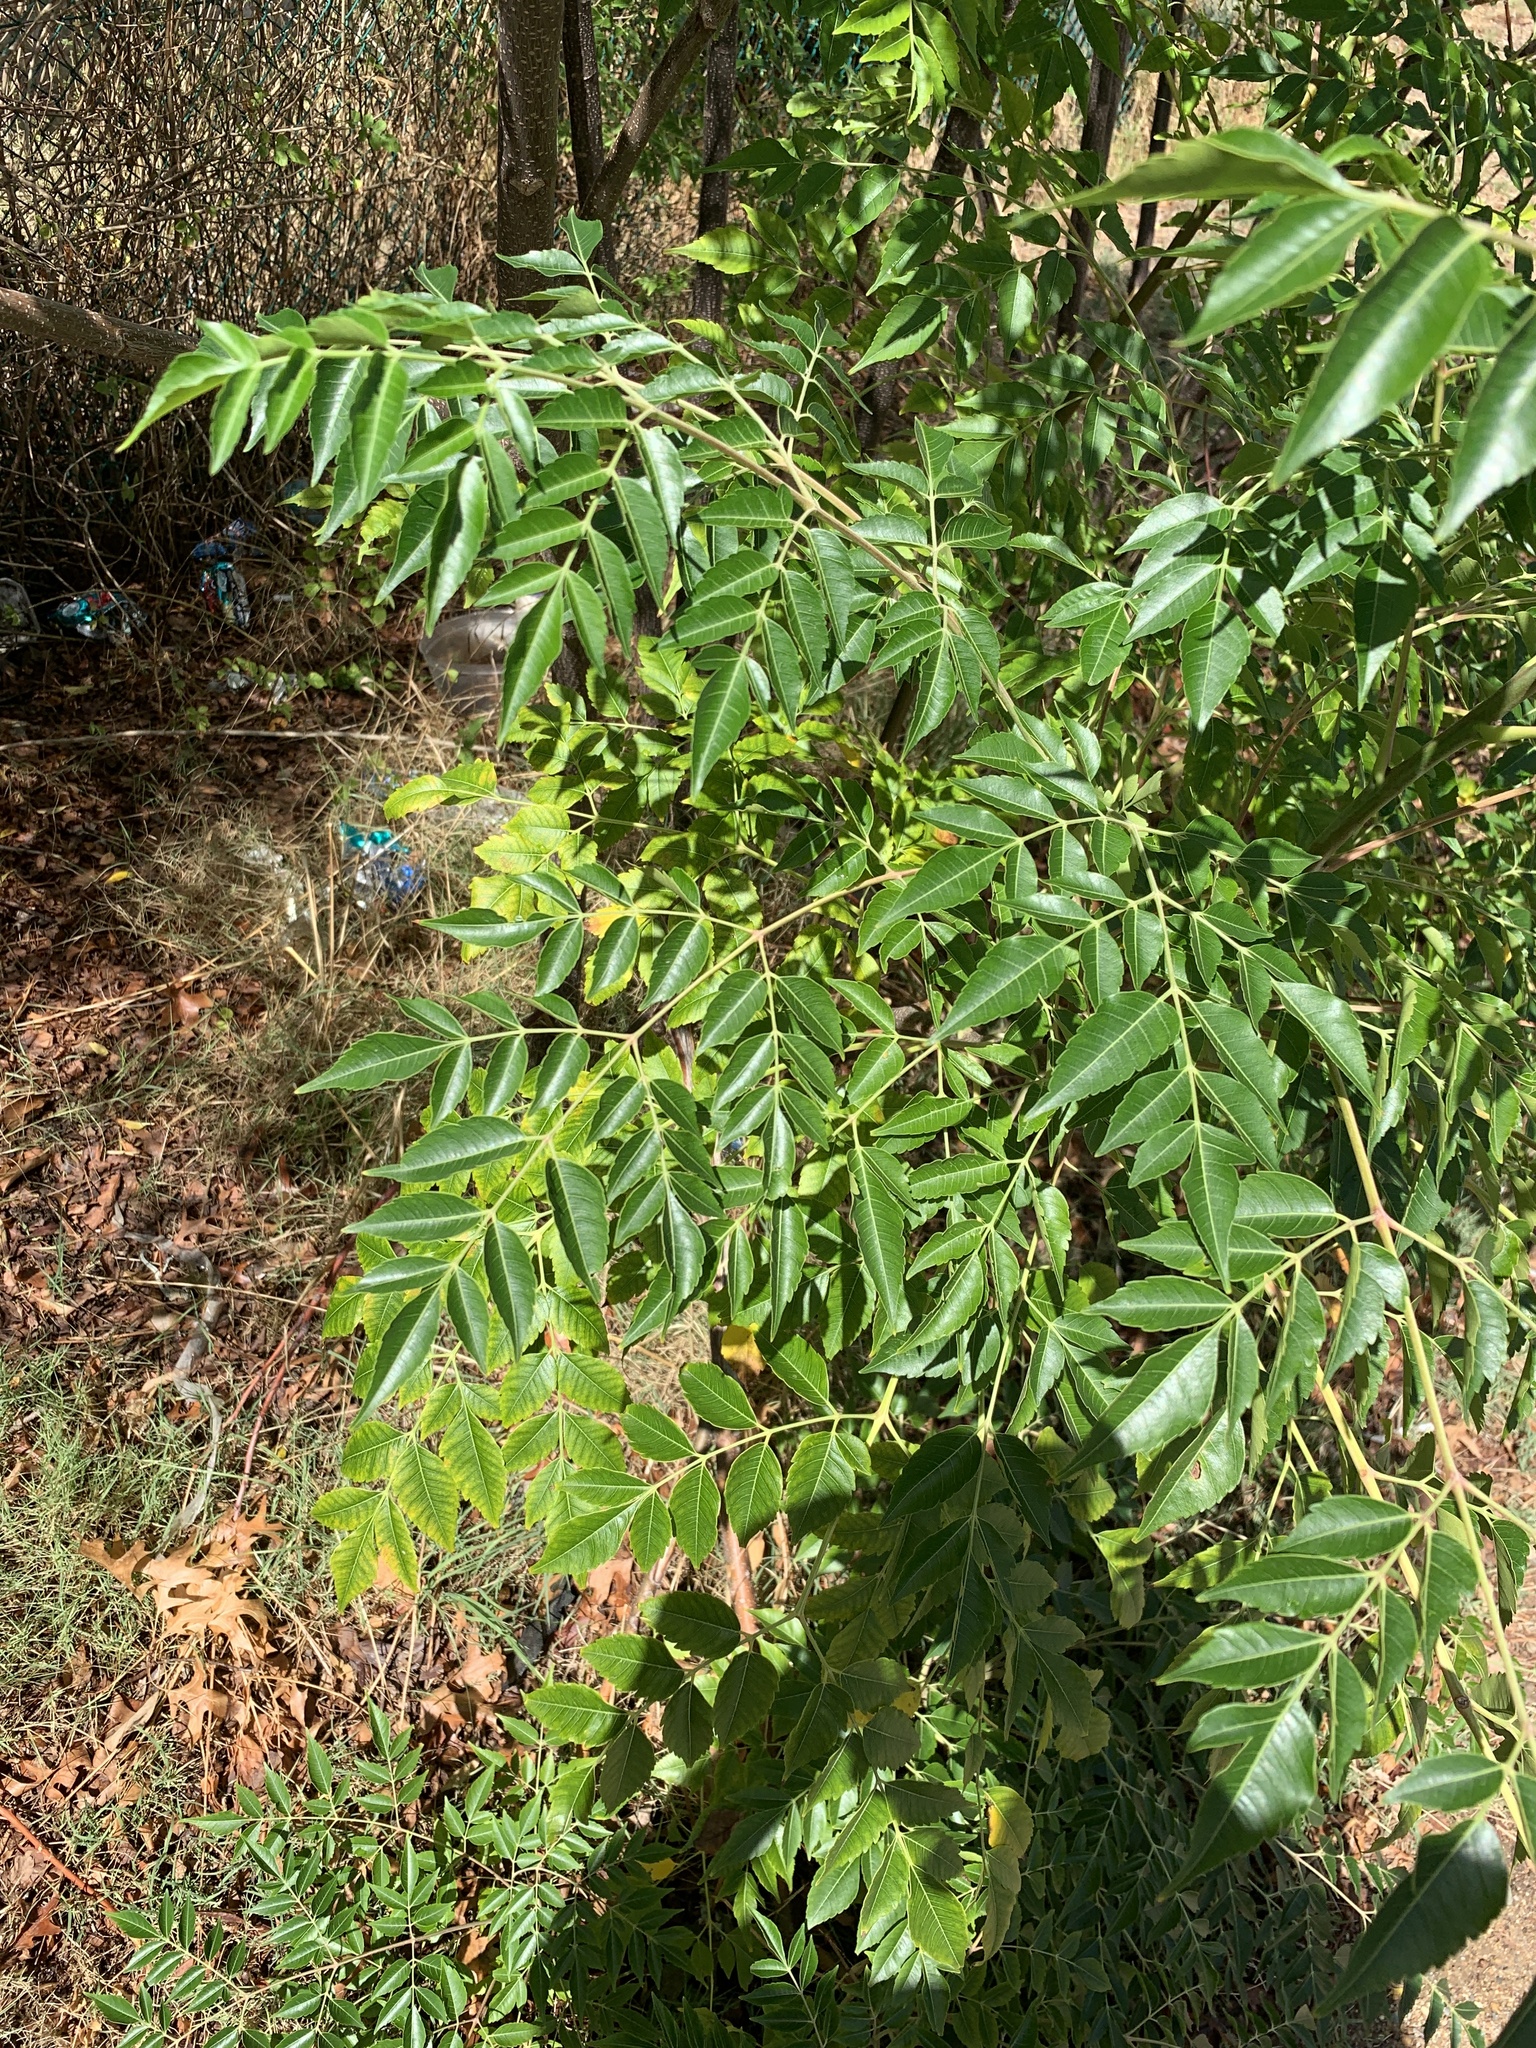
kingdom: Plantae
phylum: Tracheophyta
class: Magnoliopsida
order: Sapindales
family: Meliaceae
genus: Melia
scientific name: Melia azedarach
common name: Chinaberrytree
